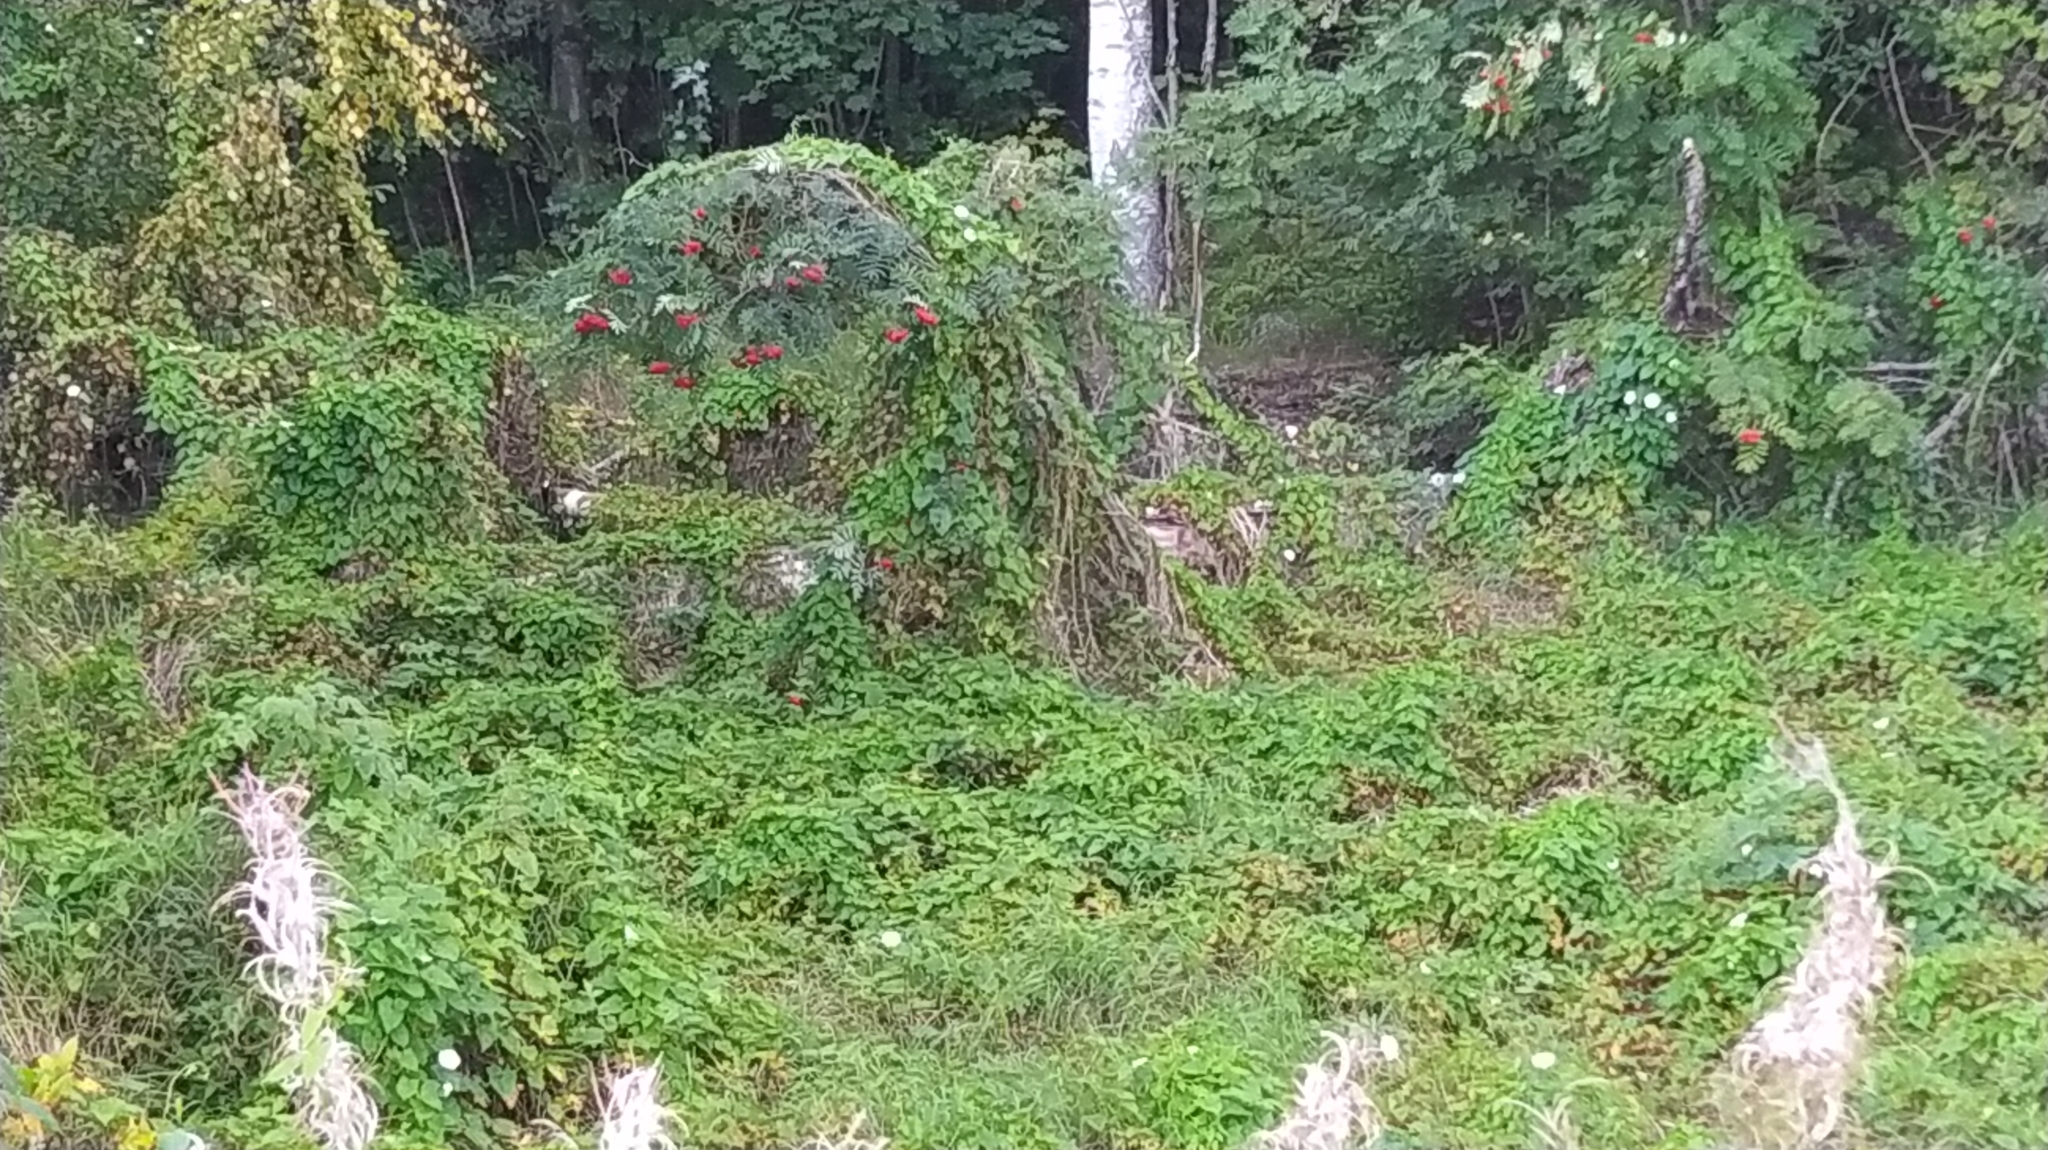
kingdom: Plantae
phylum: Tracheophyta
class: Magnoliopsida
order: Solanales
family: Convolvulaceae
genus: Calystegia
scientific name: Calystegia sepium
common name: Hedge bindweed
